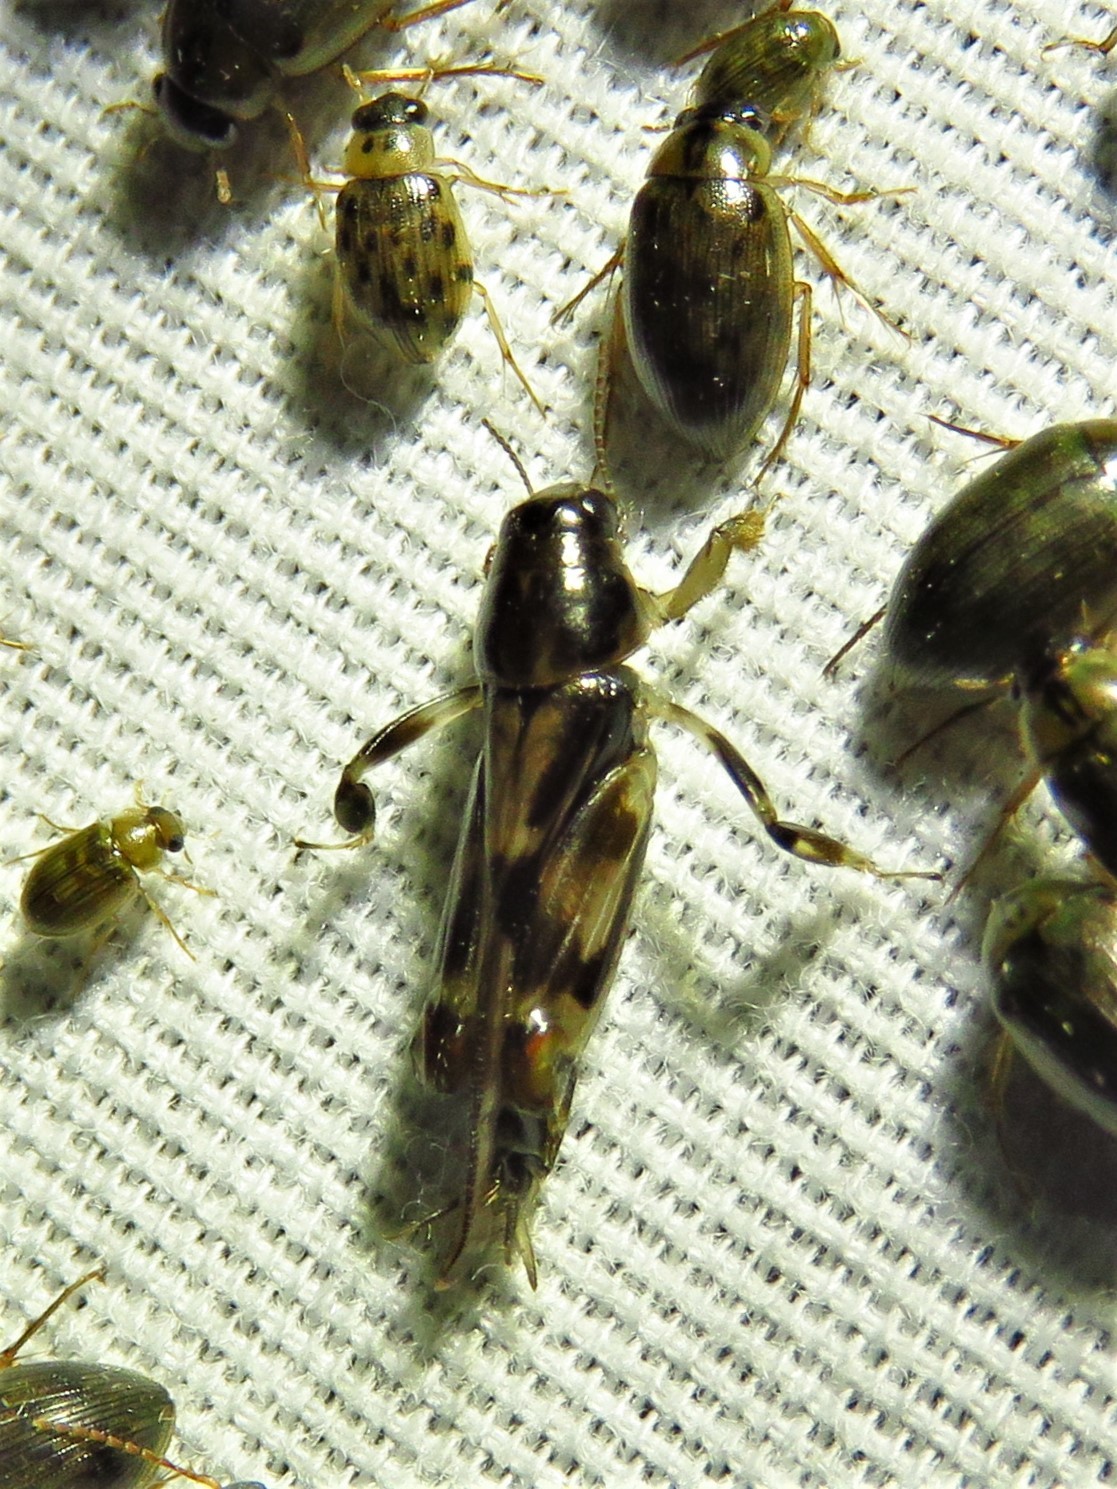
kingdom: Animalia
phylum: Arthropoda
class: Insecta
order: Orthoptera
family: Tridactylidae
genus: Neotridactylus
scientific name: Neotridactylus apicialis
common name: Larger pygmy locust
